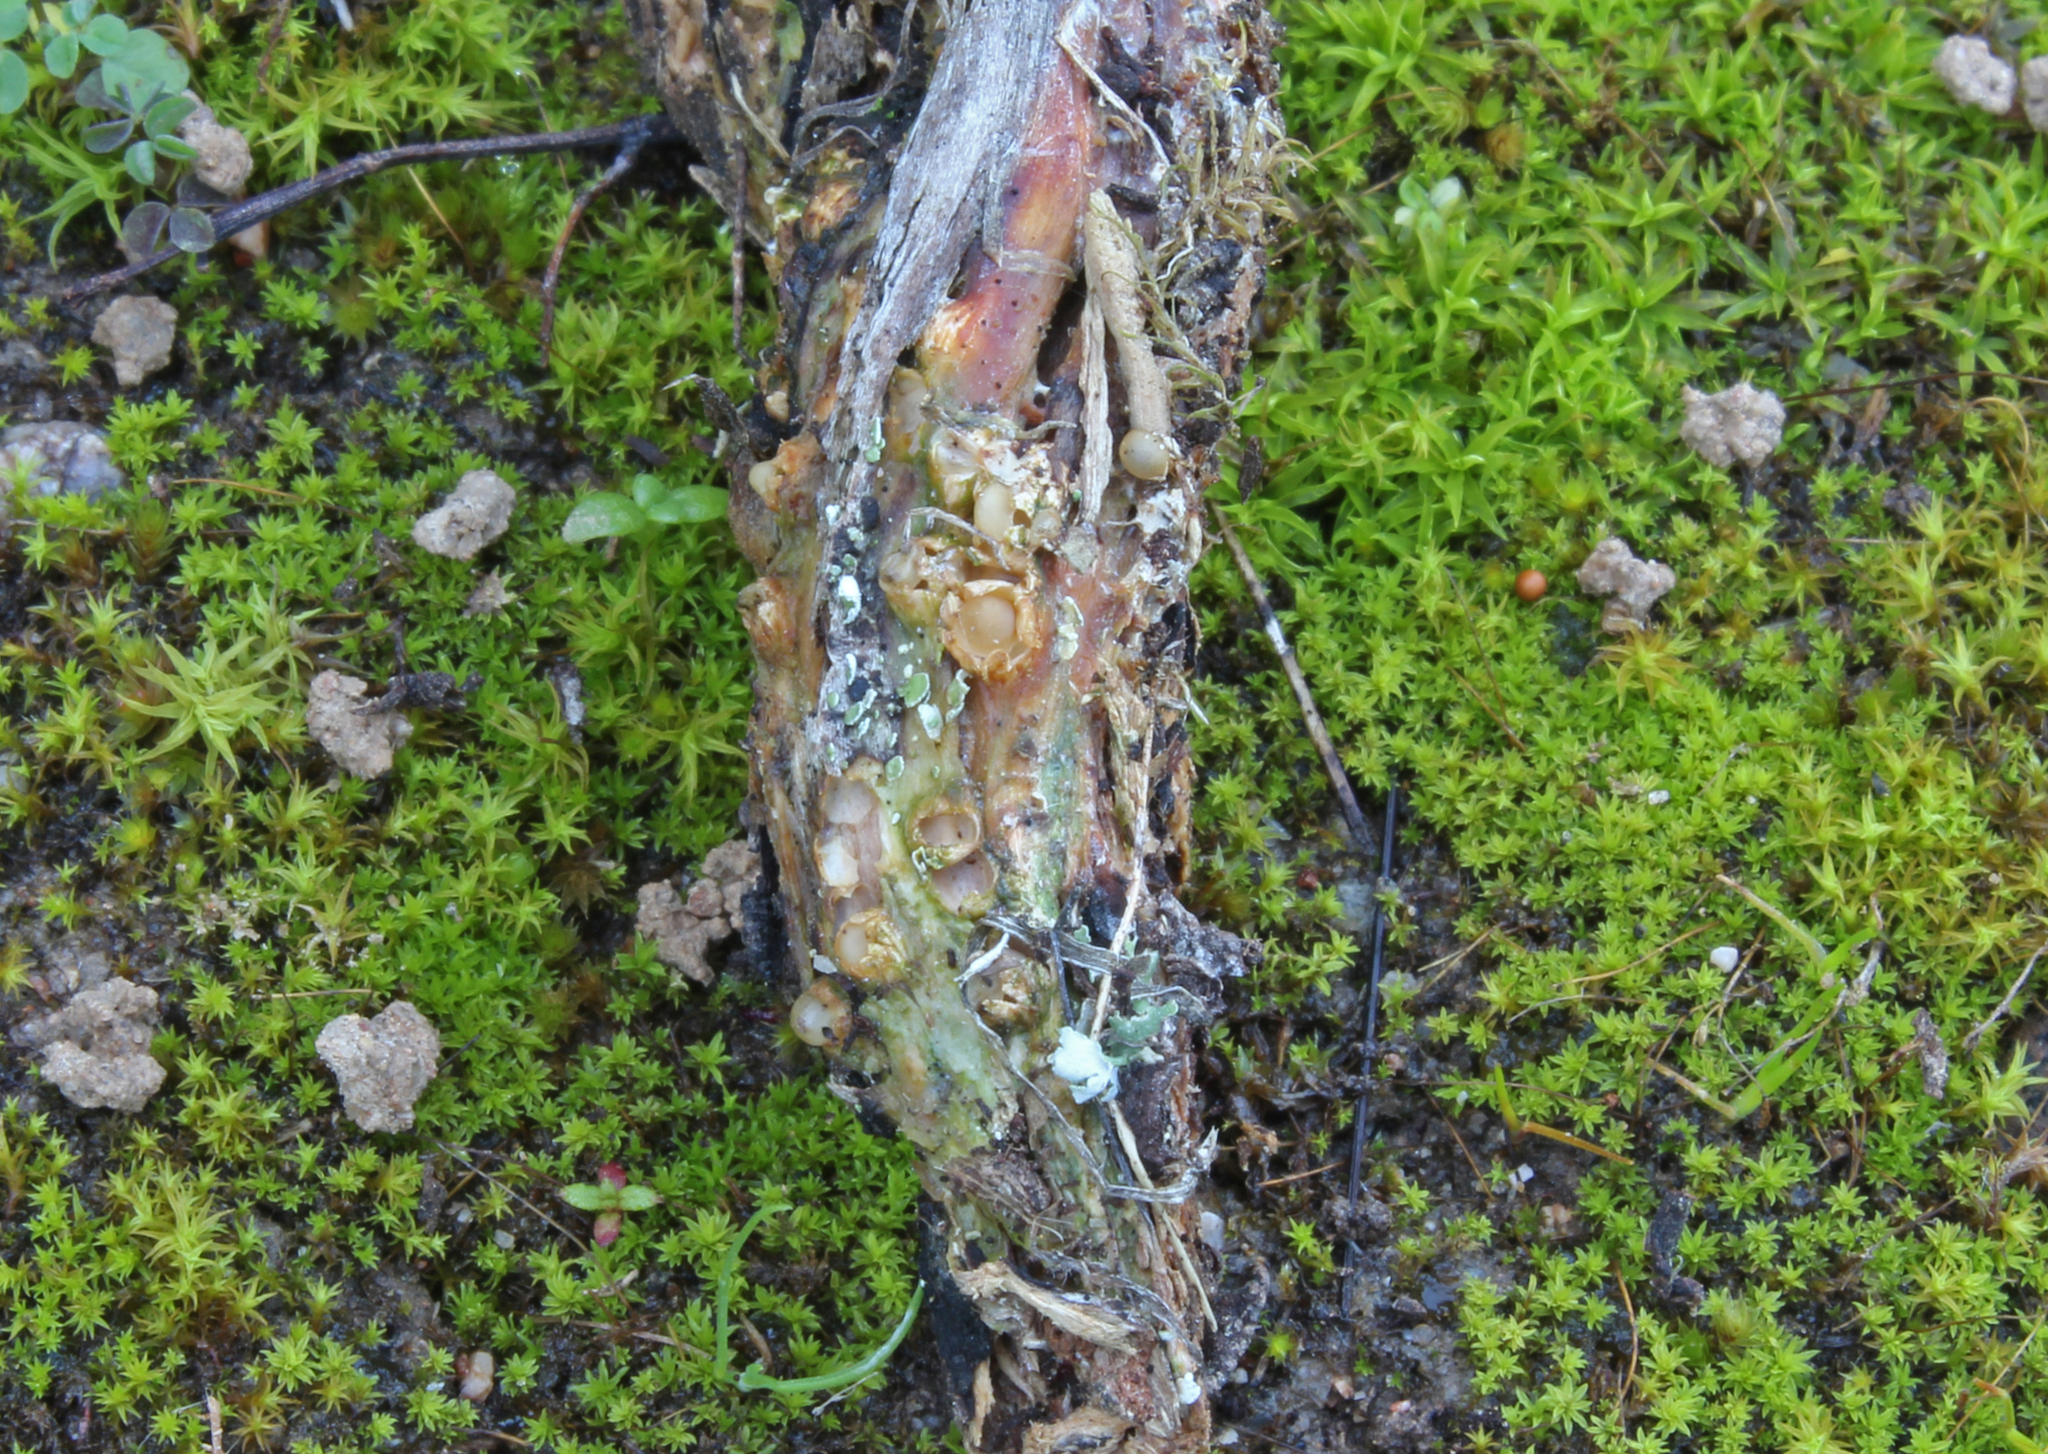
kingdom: Fungi
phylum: Basidiomycota
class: Agaricomycetes
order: Geastrales
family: Geastraceae
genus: Sphaerobolus
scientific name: Sphaerobolus stellatus
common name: Cannon fungus
